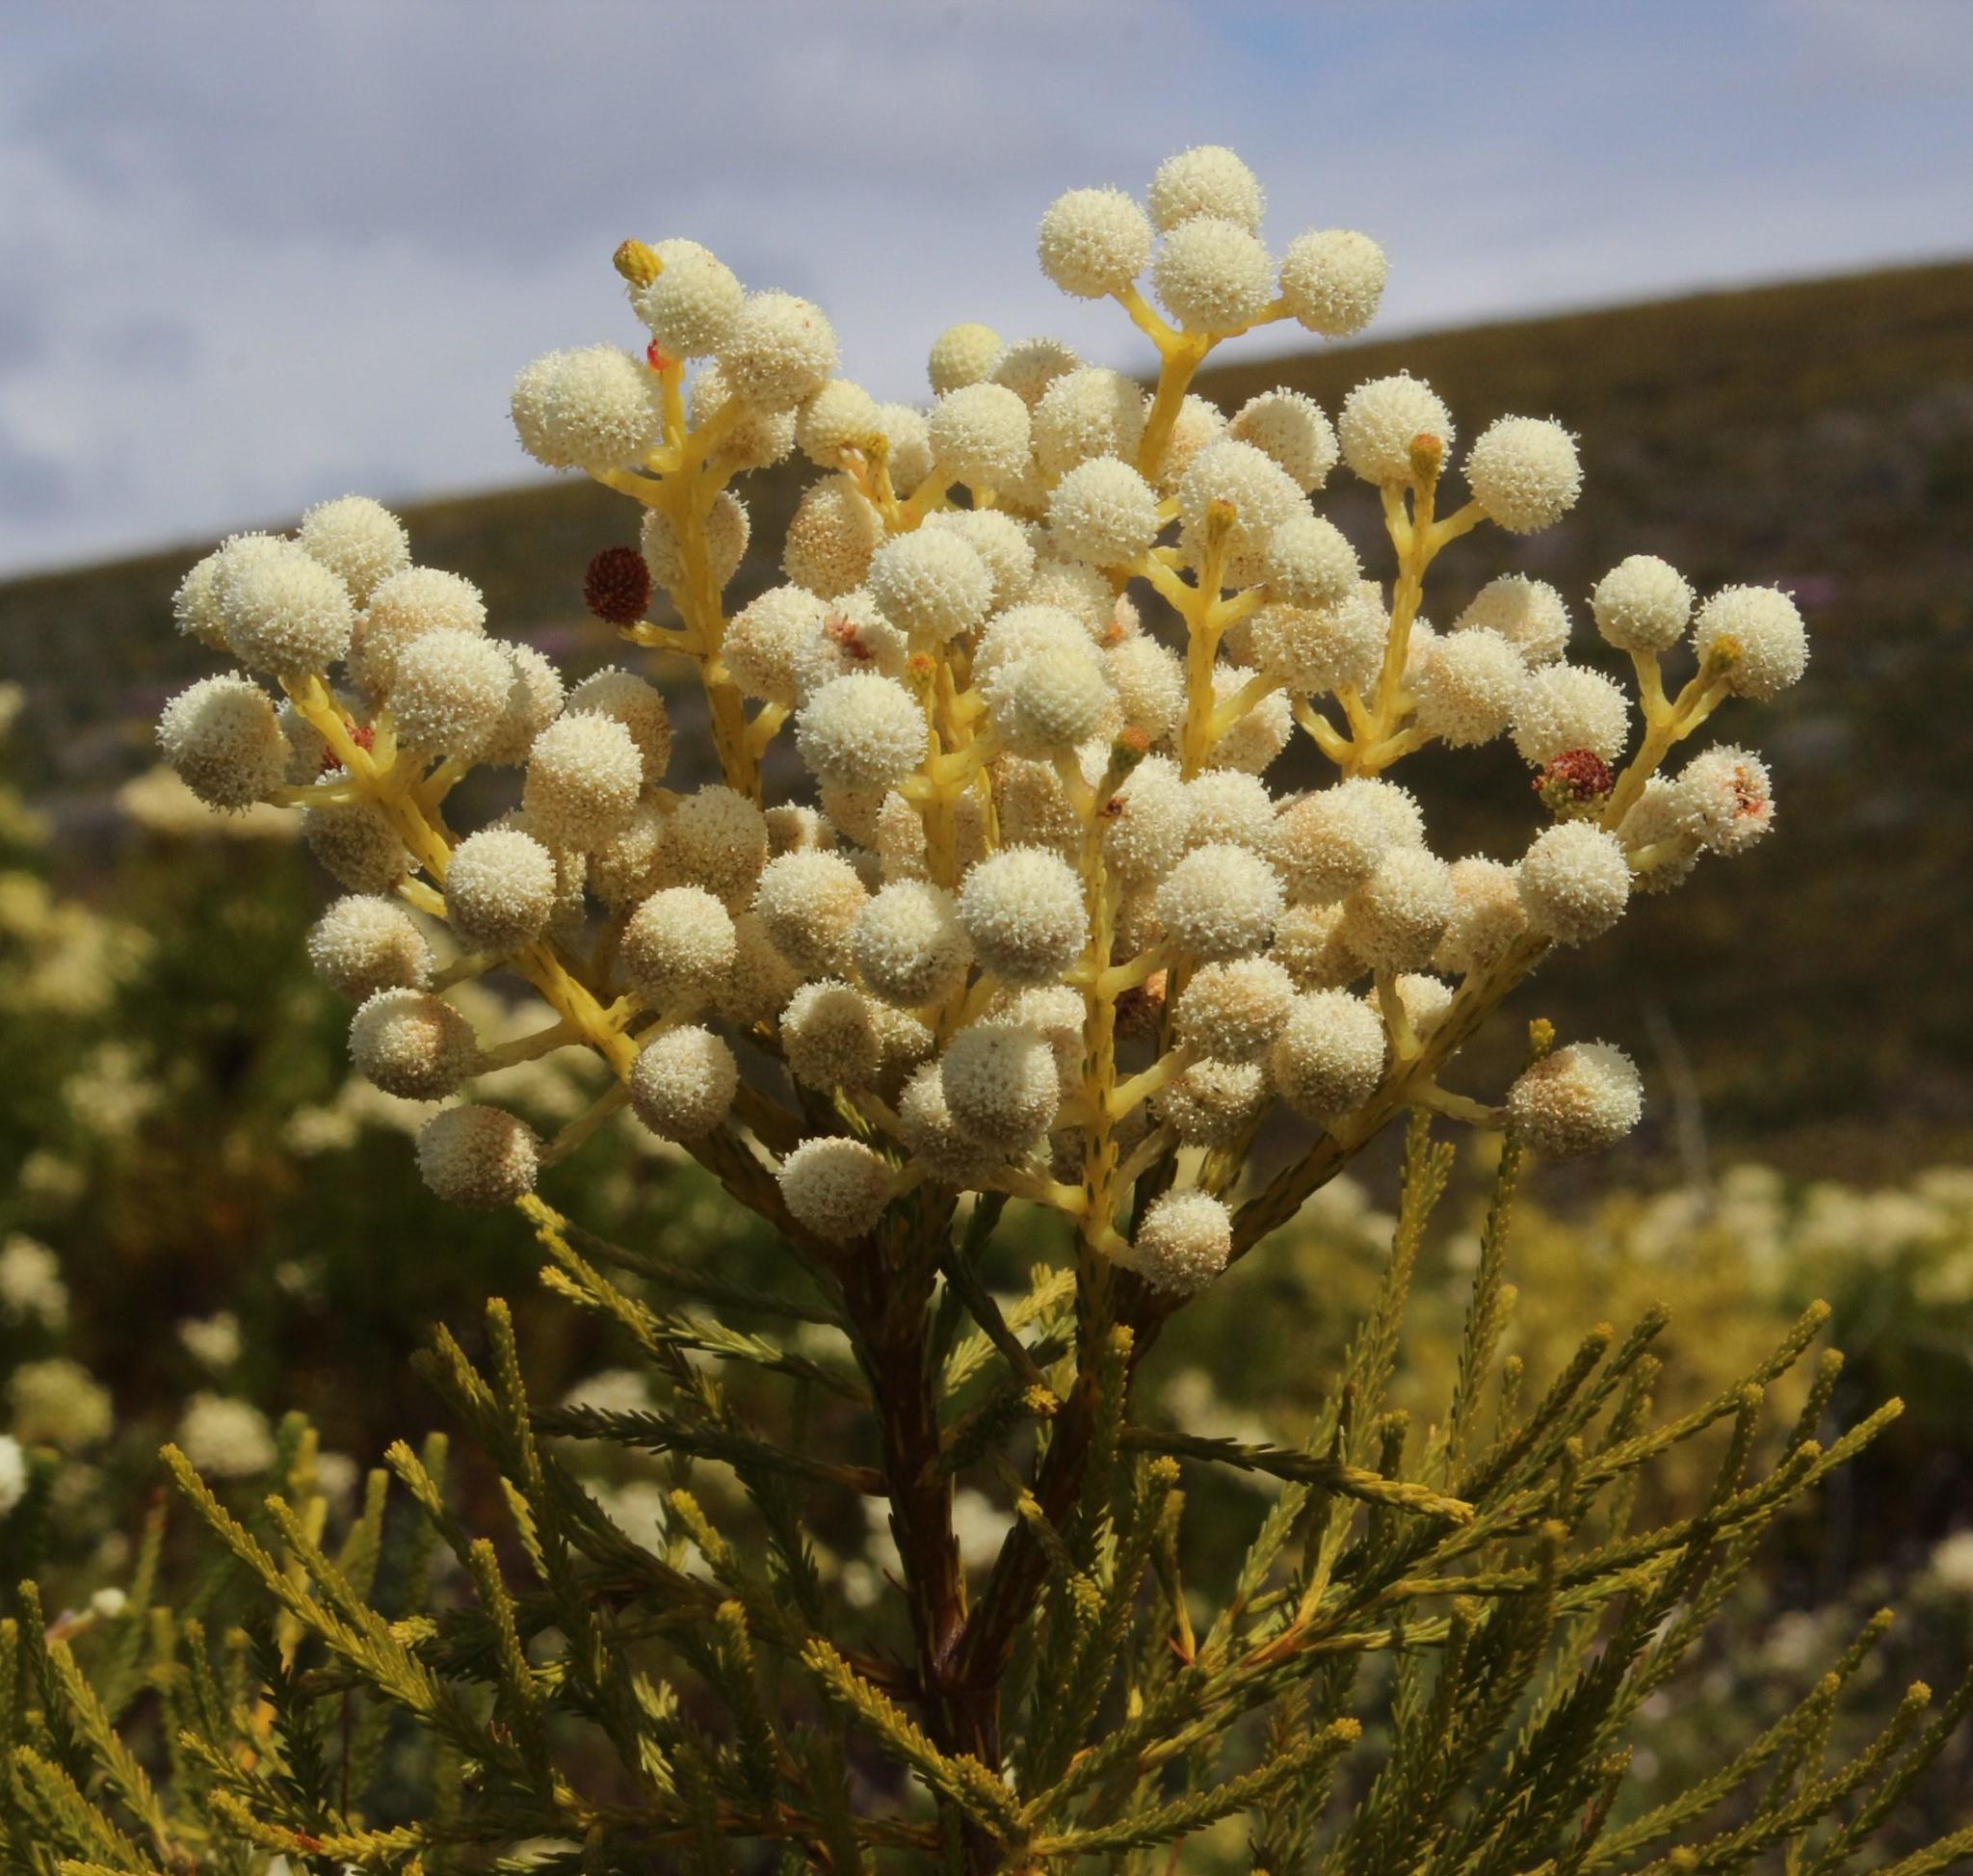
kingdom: Plantae
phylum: Tracheophyta
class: Magnoliopsida
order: Bruniales
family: Bruniaceae
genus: Berzelia
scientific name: Berzelia lanuginosa
